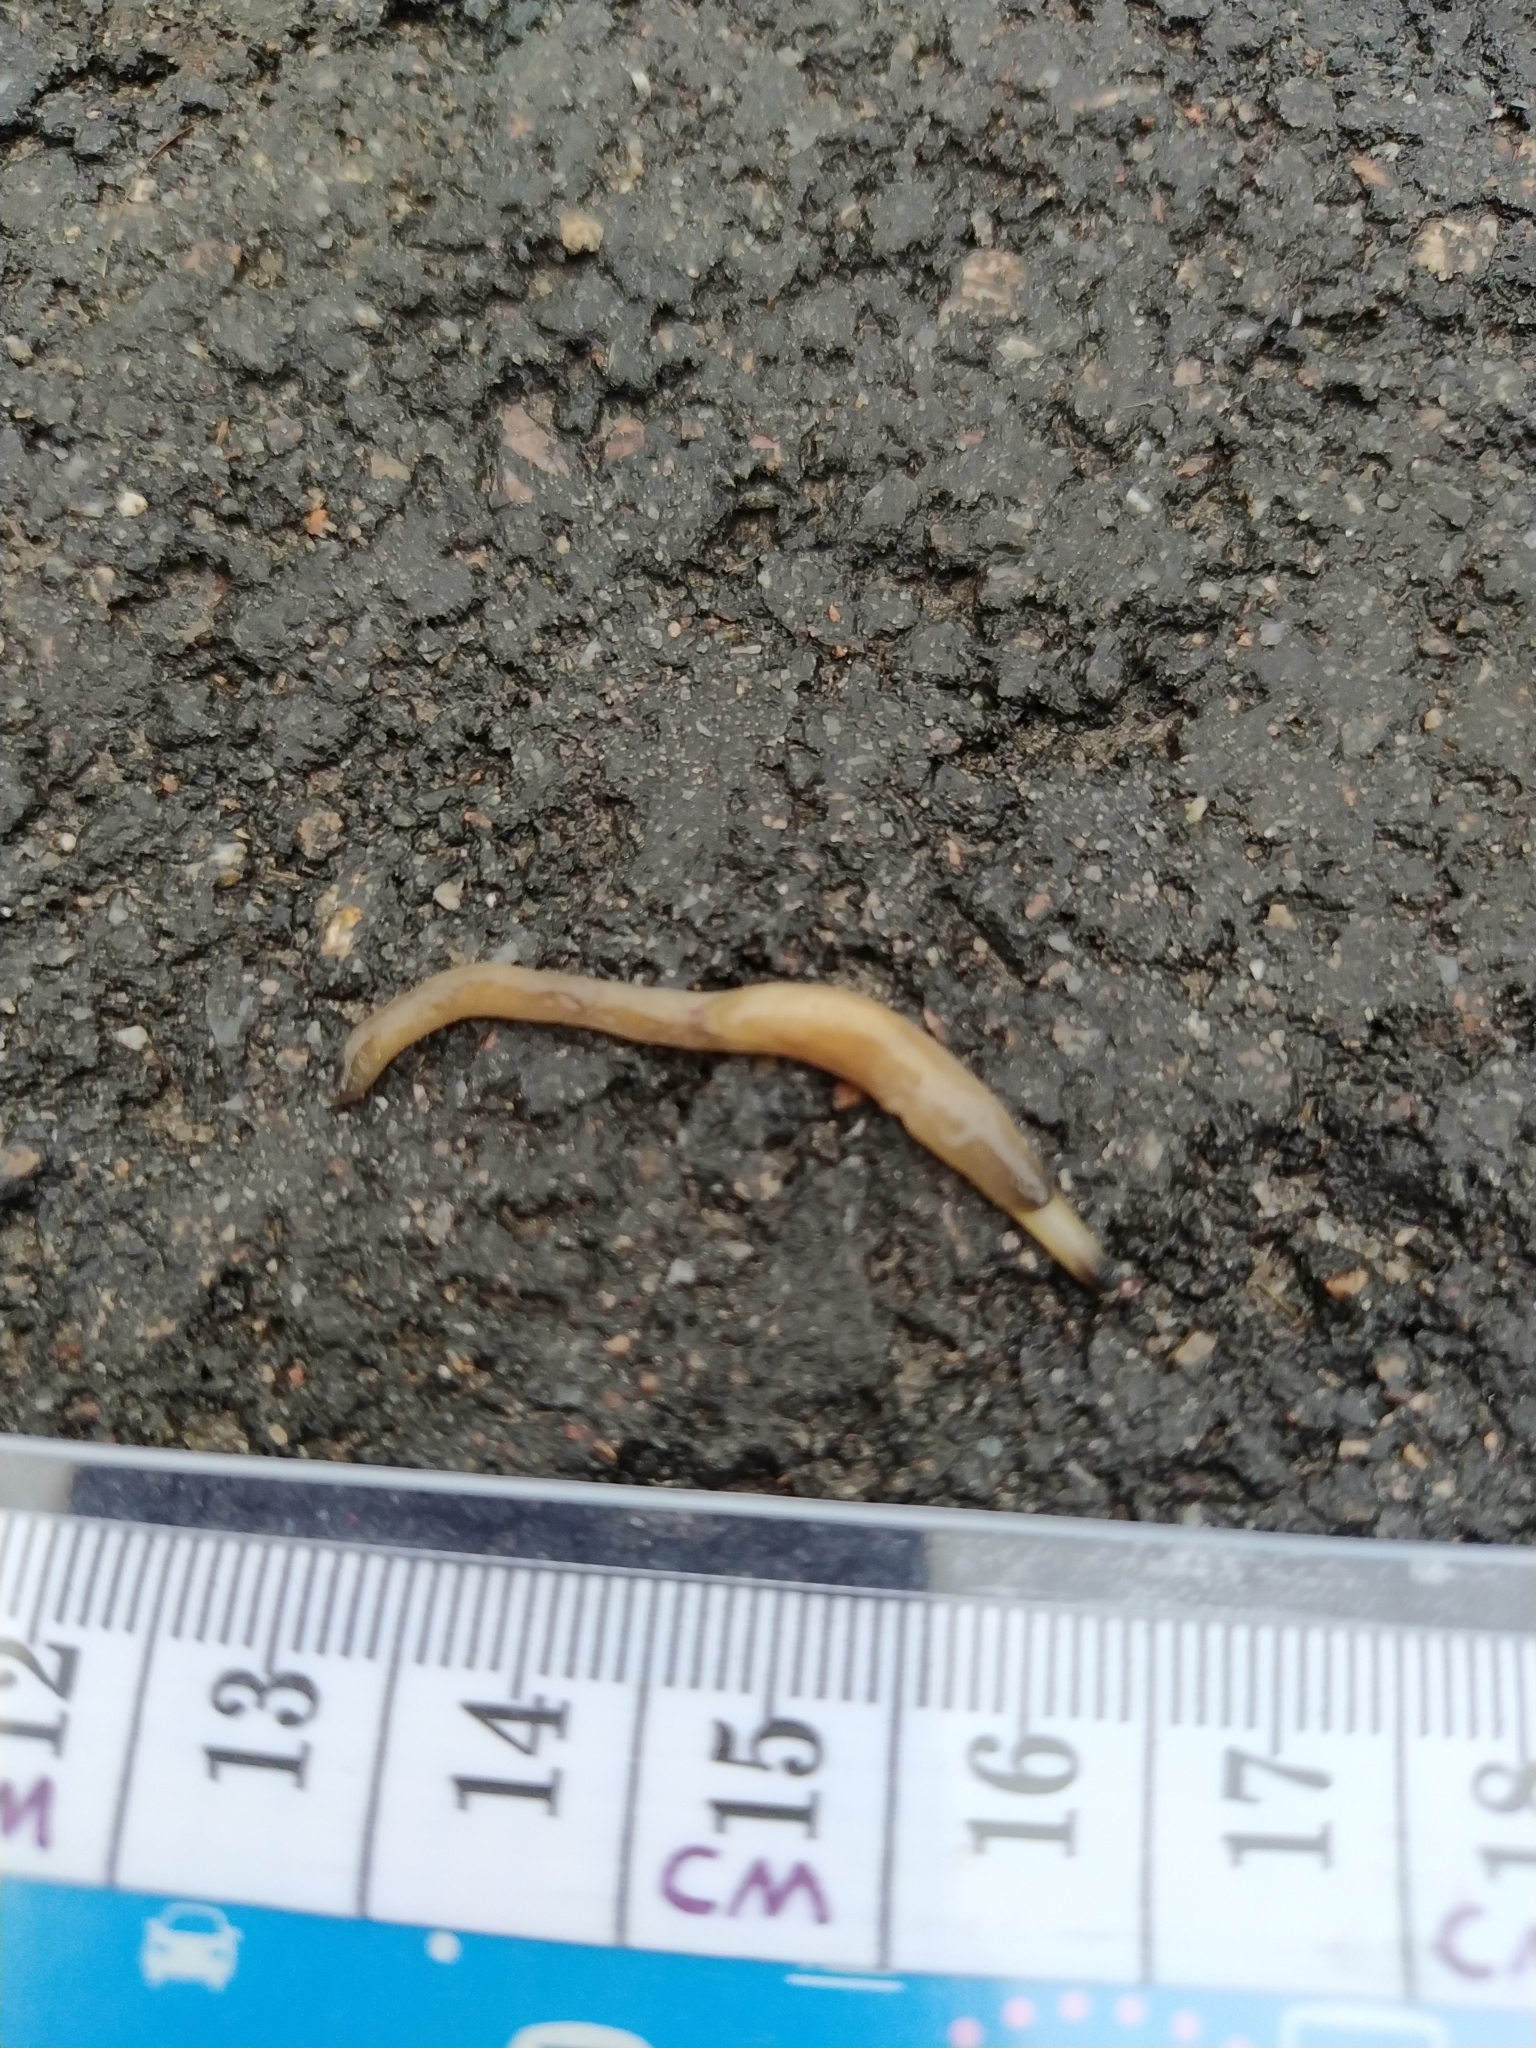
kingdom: Animalia
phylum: Mollusca
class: Gastropoda
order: Stylommatophora
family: Boettgerillidae
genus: Boettgerilla
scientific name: Boettgerilla pallens
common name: Worm slug
